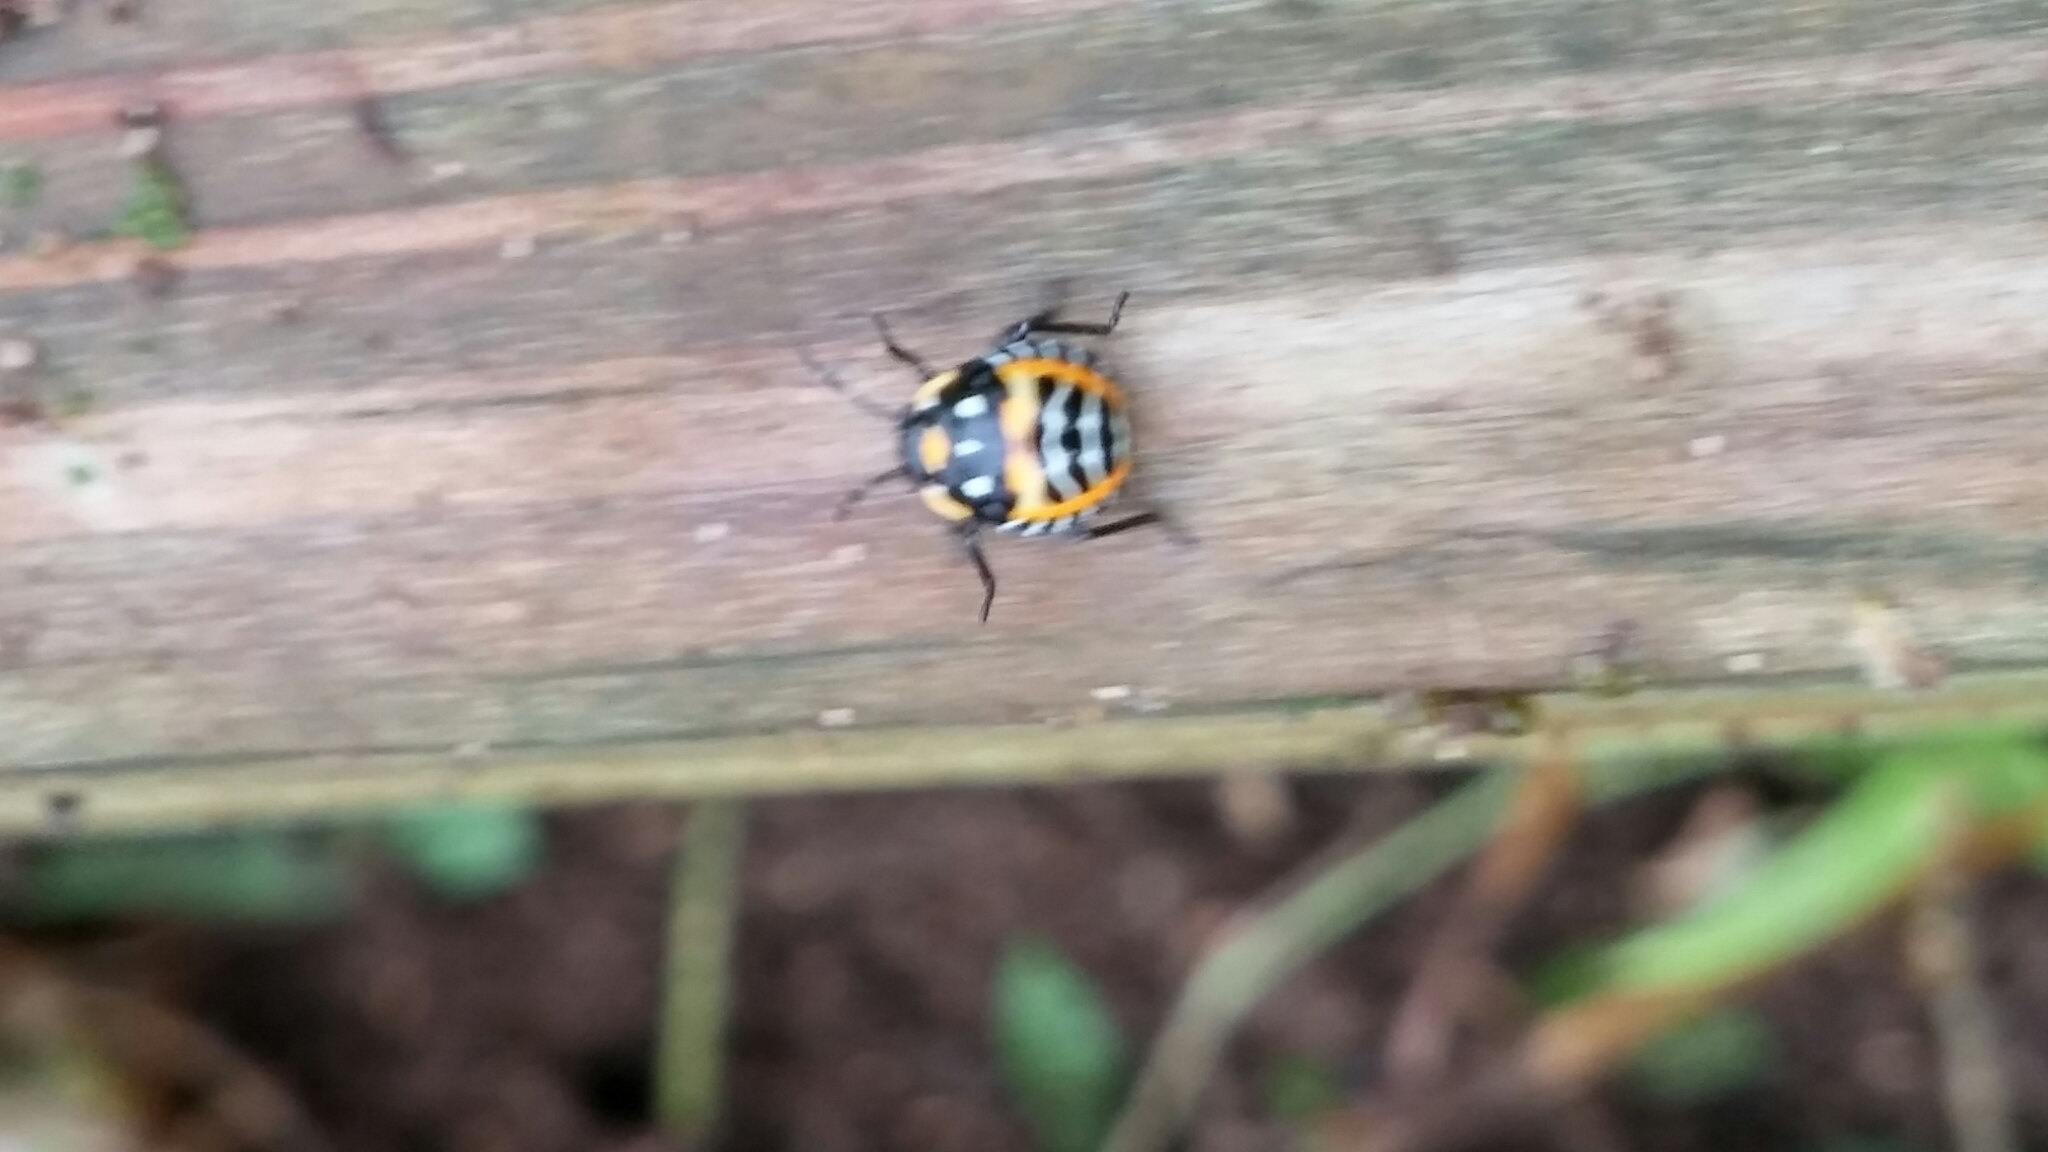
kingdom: Animalia
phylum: Arthropoda
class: Insecta
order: Hemiptera
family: Pentatomidae
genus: Murgantia
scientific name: Murgantia histrionica
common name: Harlequin bug
